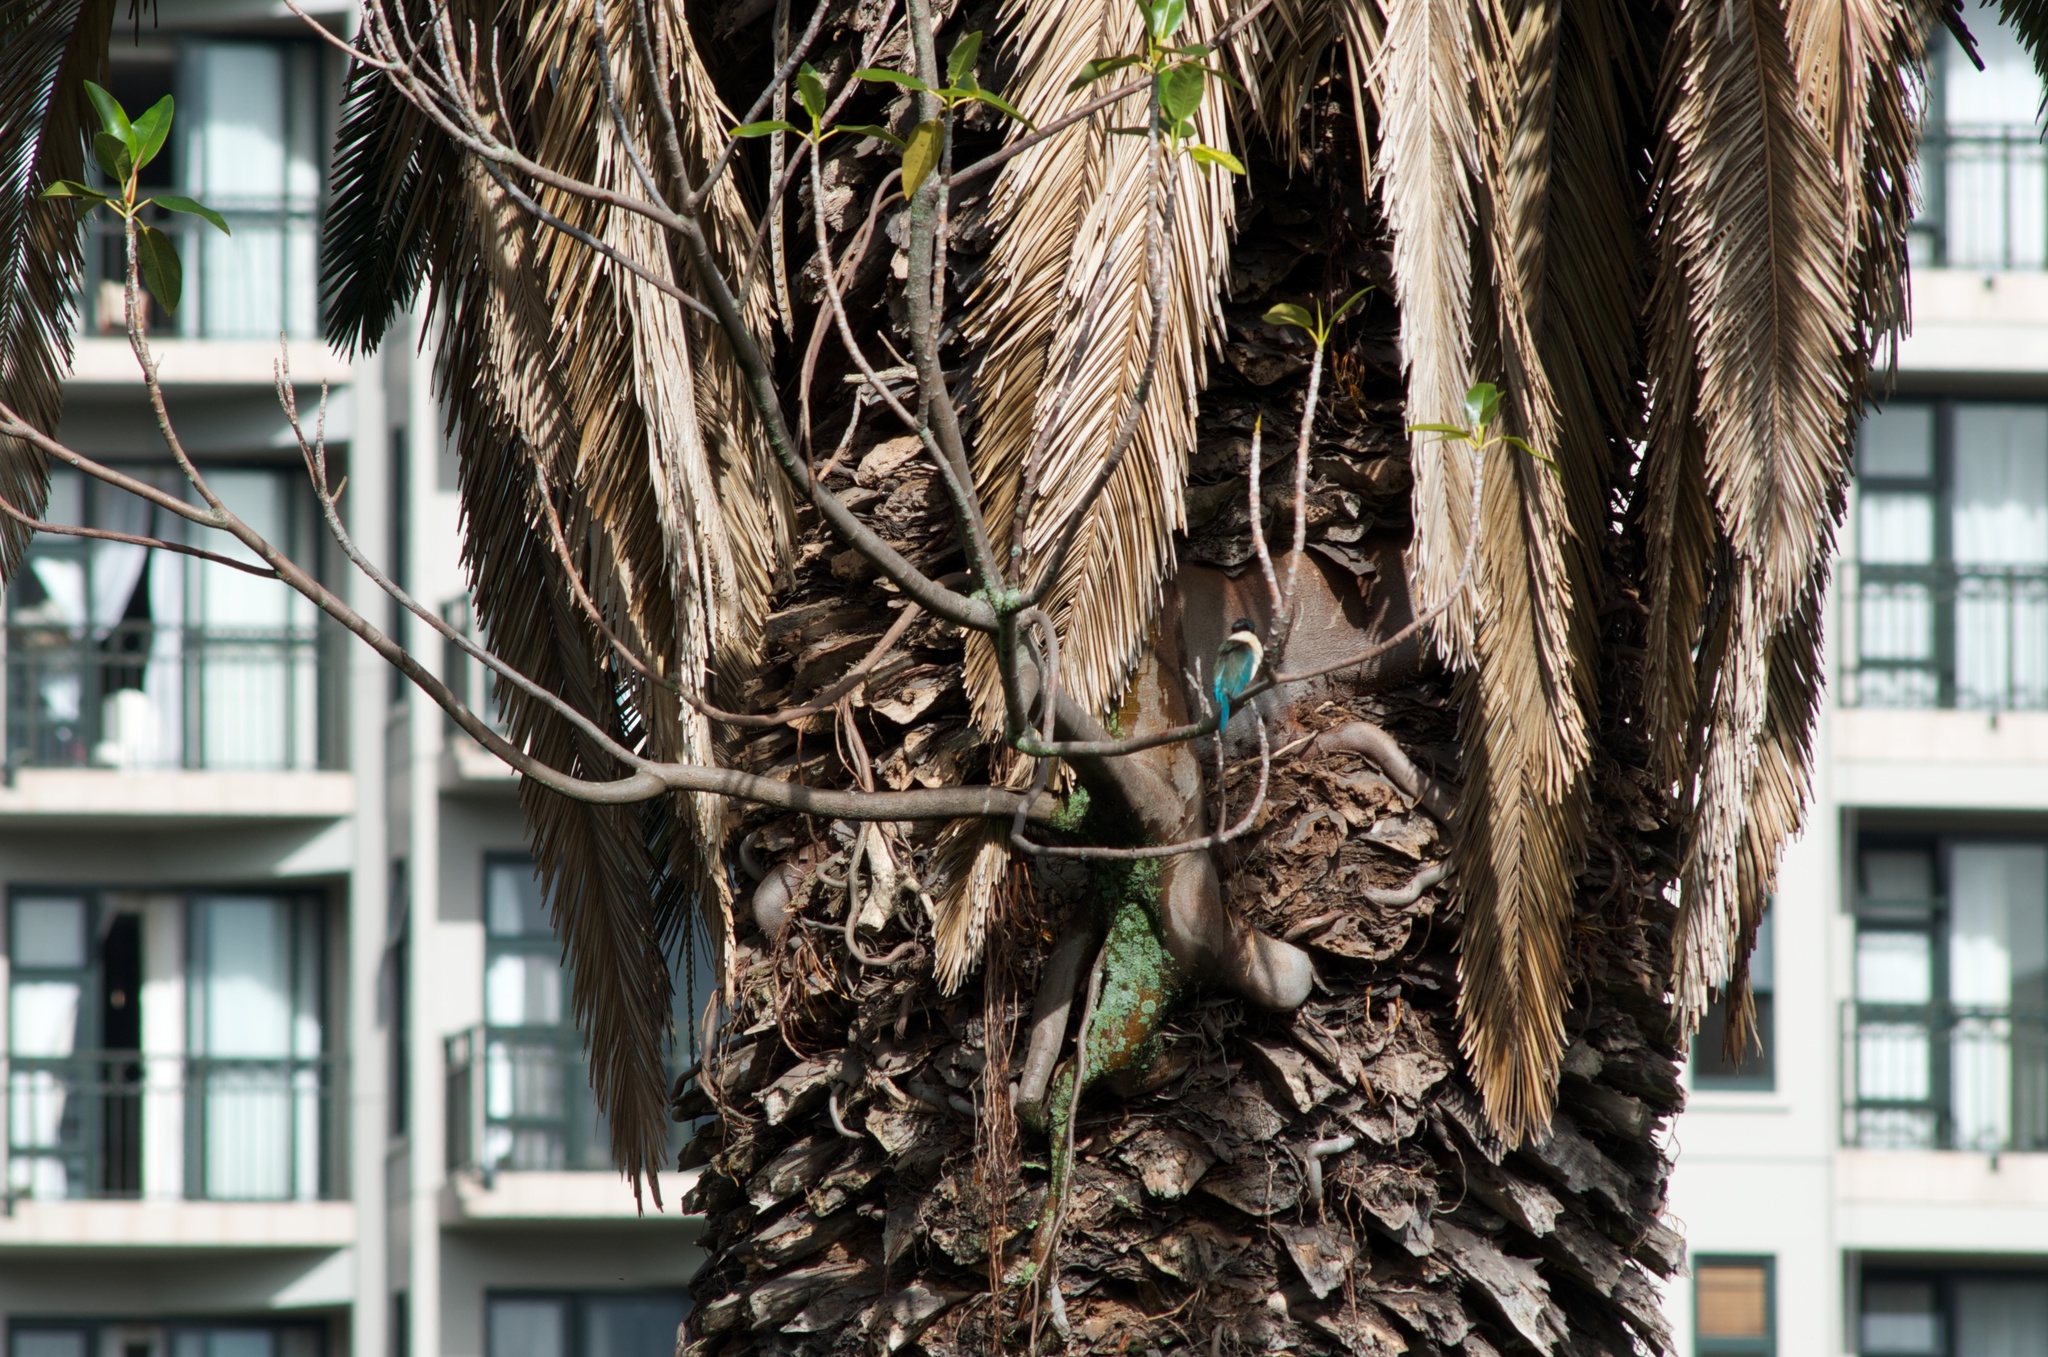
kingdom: Animalia
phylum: Chordata
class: Aves
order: Coraciiformes
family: Alcedinidae
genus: Todiramphus
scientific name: Todiramphus sanctus
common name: Sacred kingfisher
